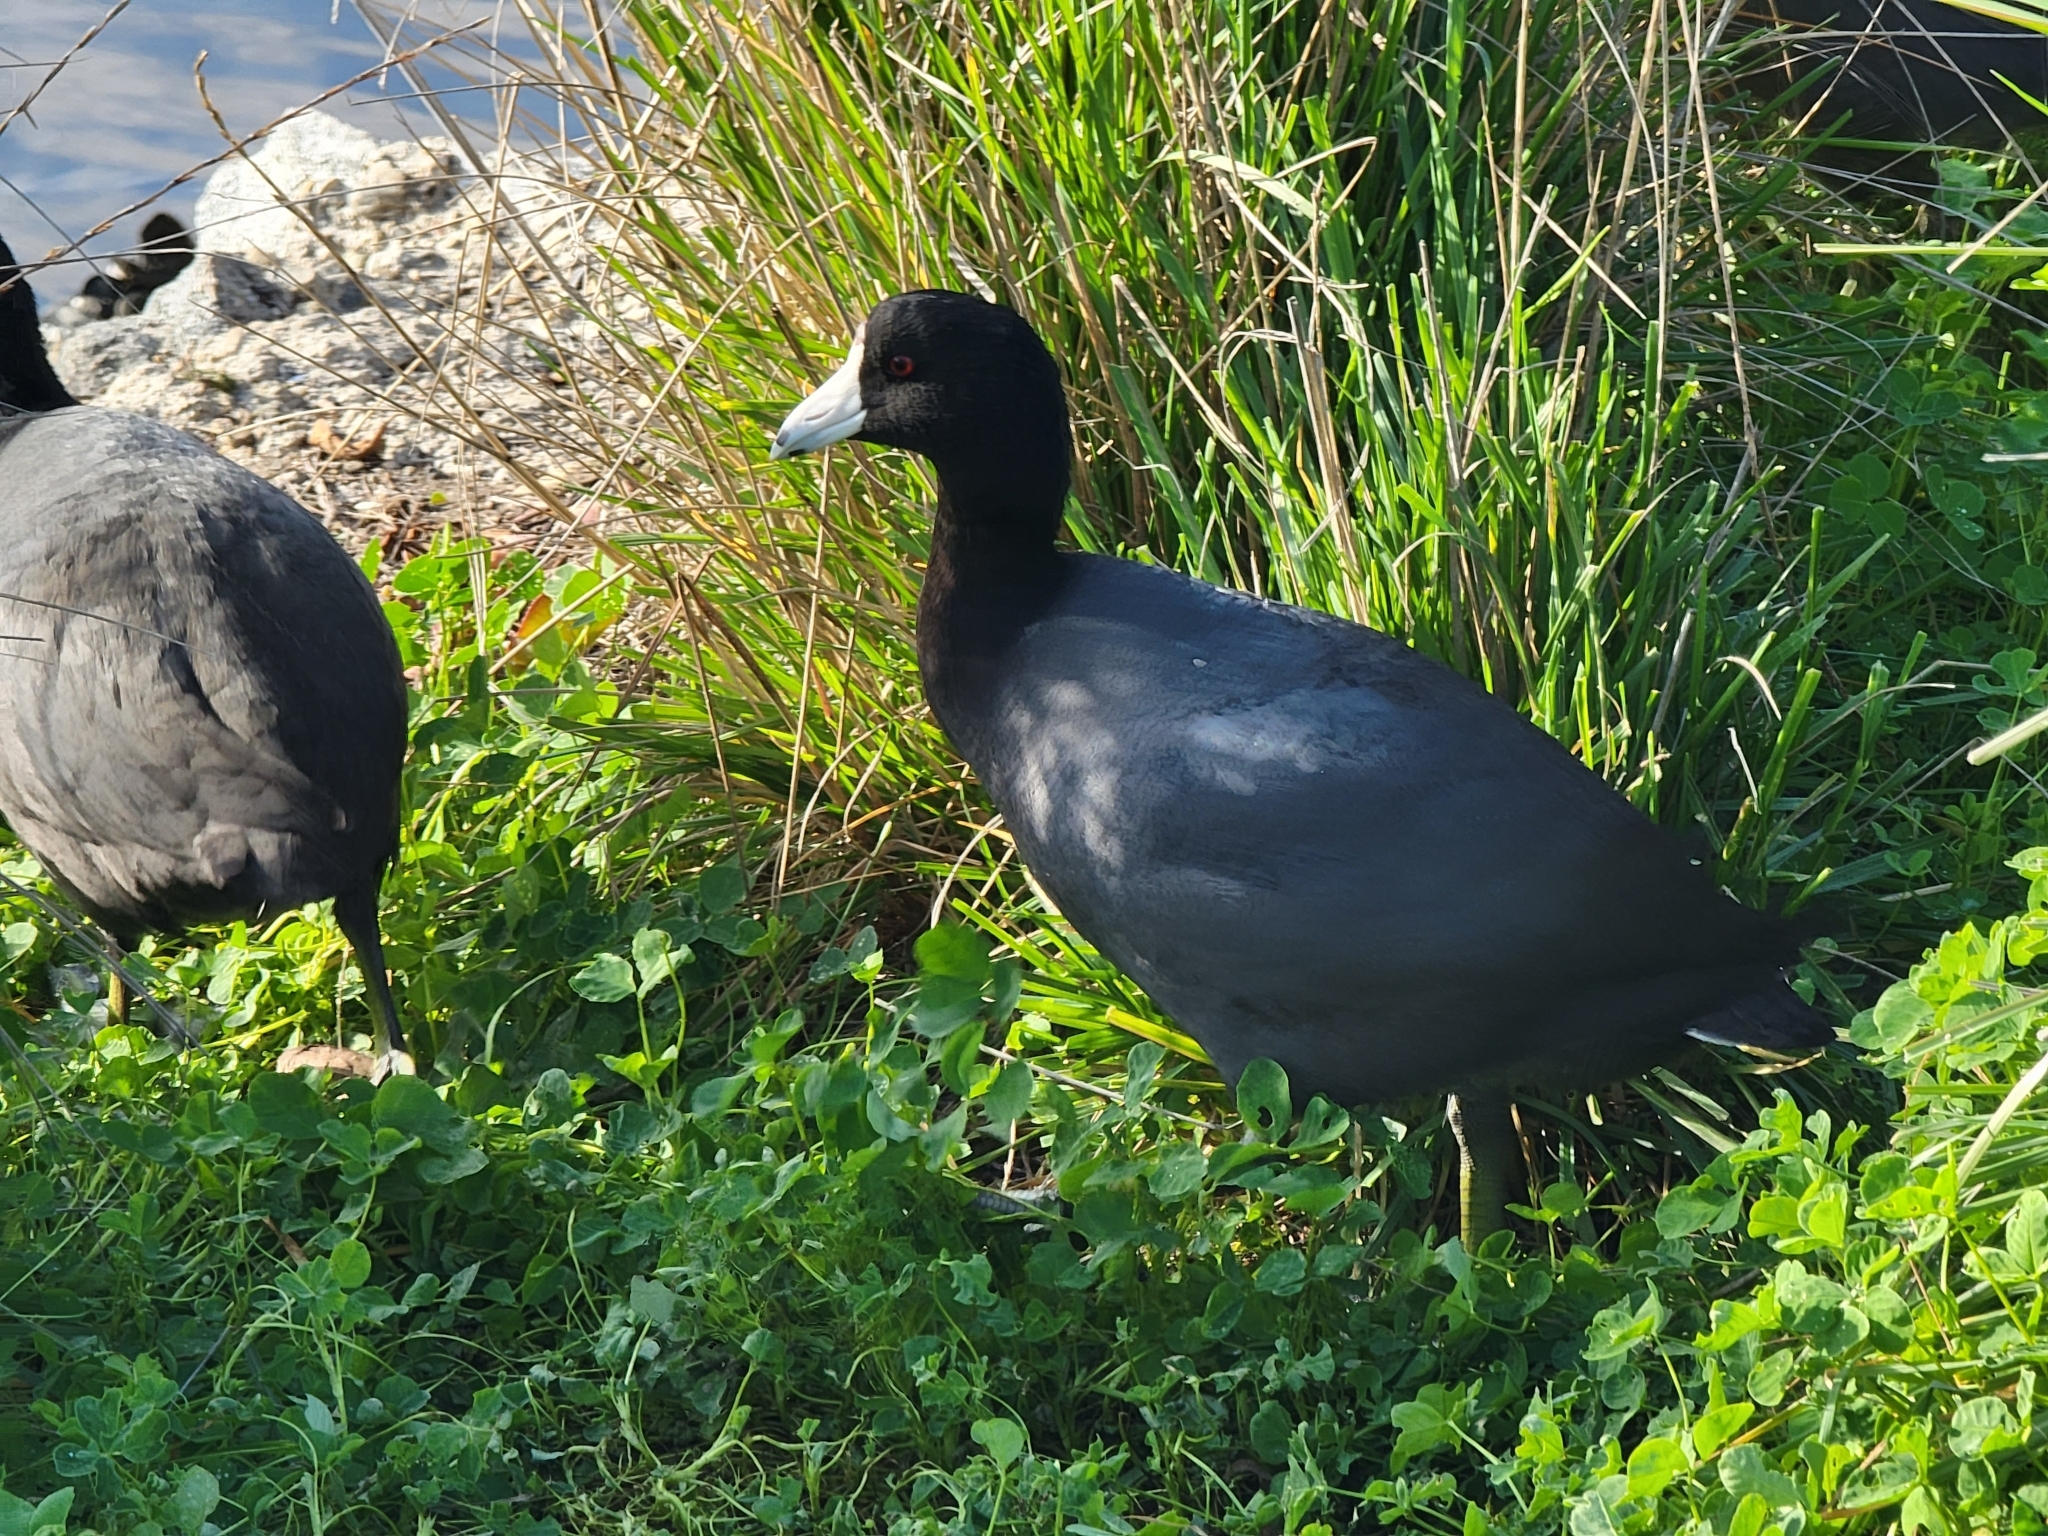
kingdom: Animalia
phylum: Chordata
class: Aves
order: Gruiformes
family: Rallidae
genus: Fulica
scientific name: Fulica americana
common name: American coot
